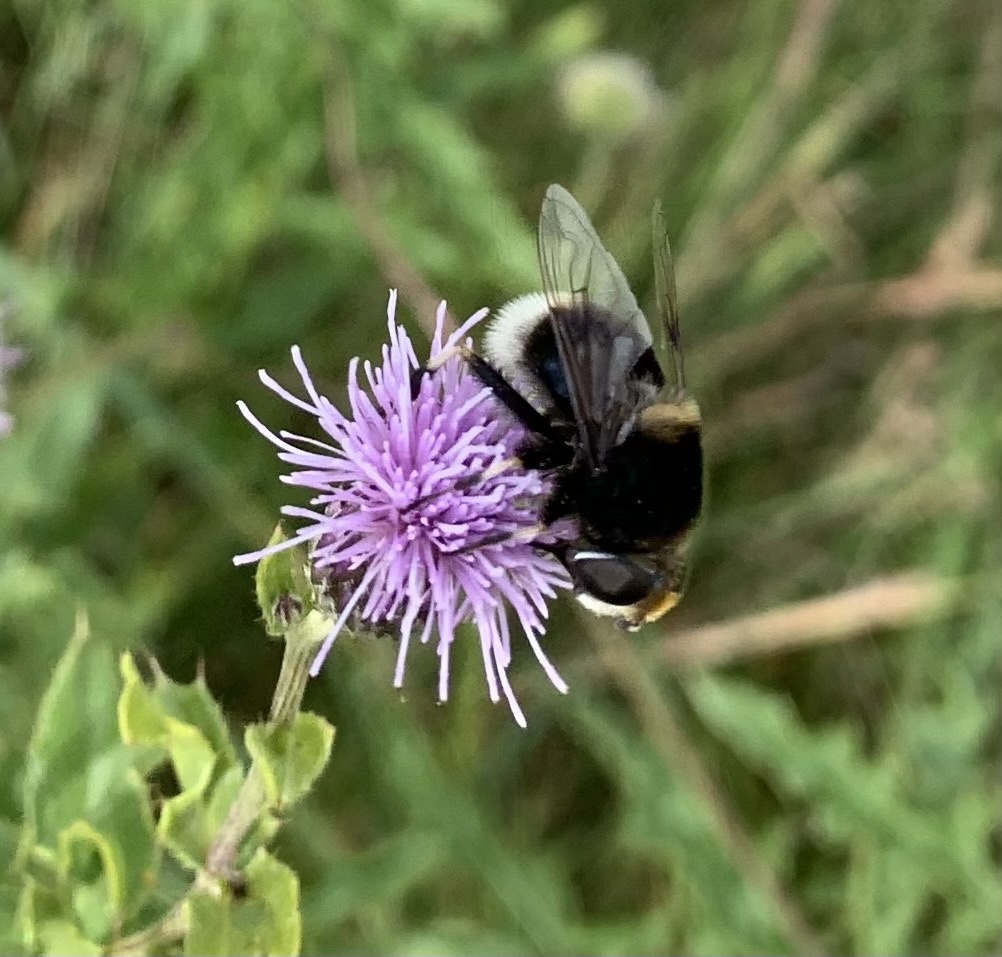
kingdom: Animalia
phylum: Arthropoda
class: Insecta
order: Diptera
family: Syrphidae
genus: Eristalis
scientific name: Eristalis intricaria
